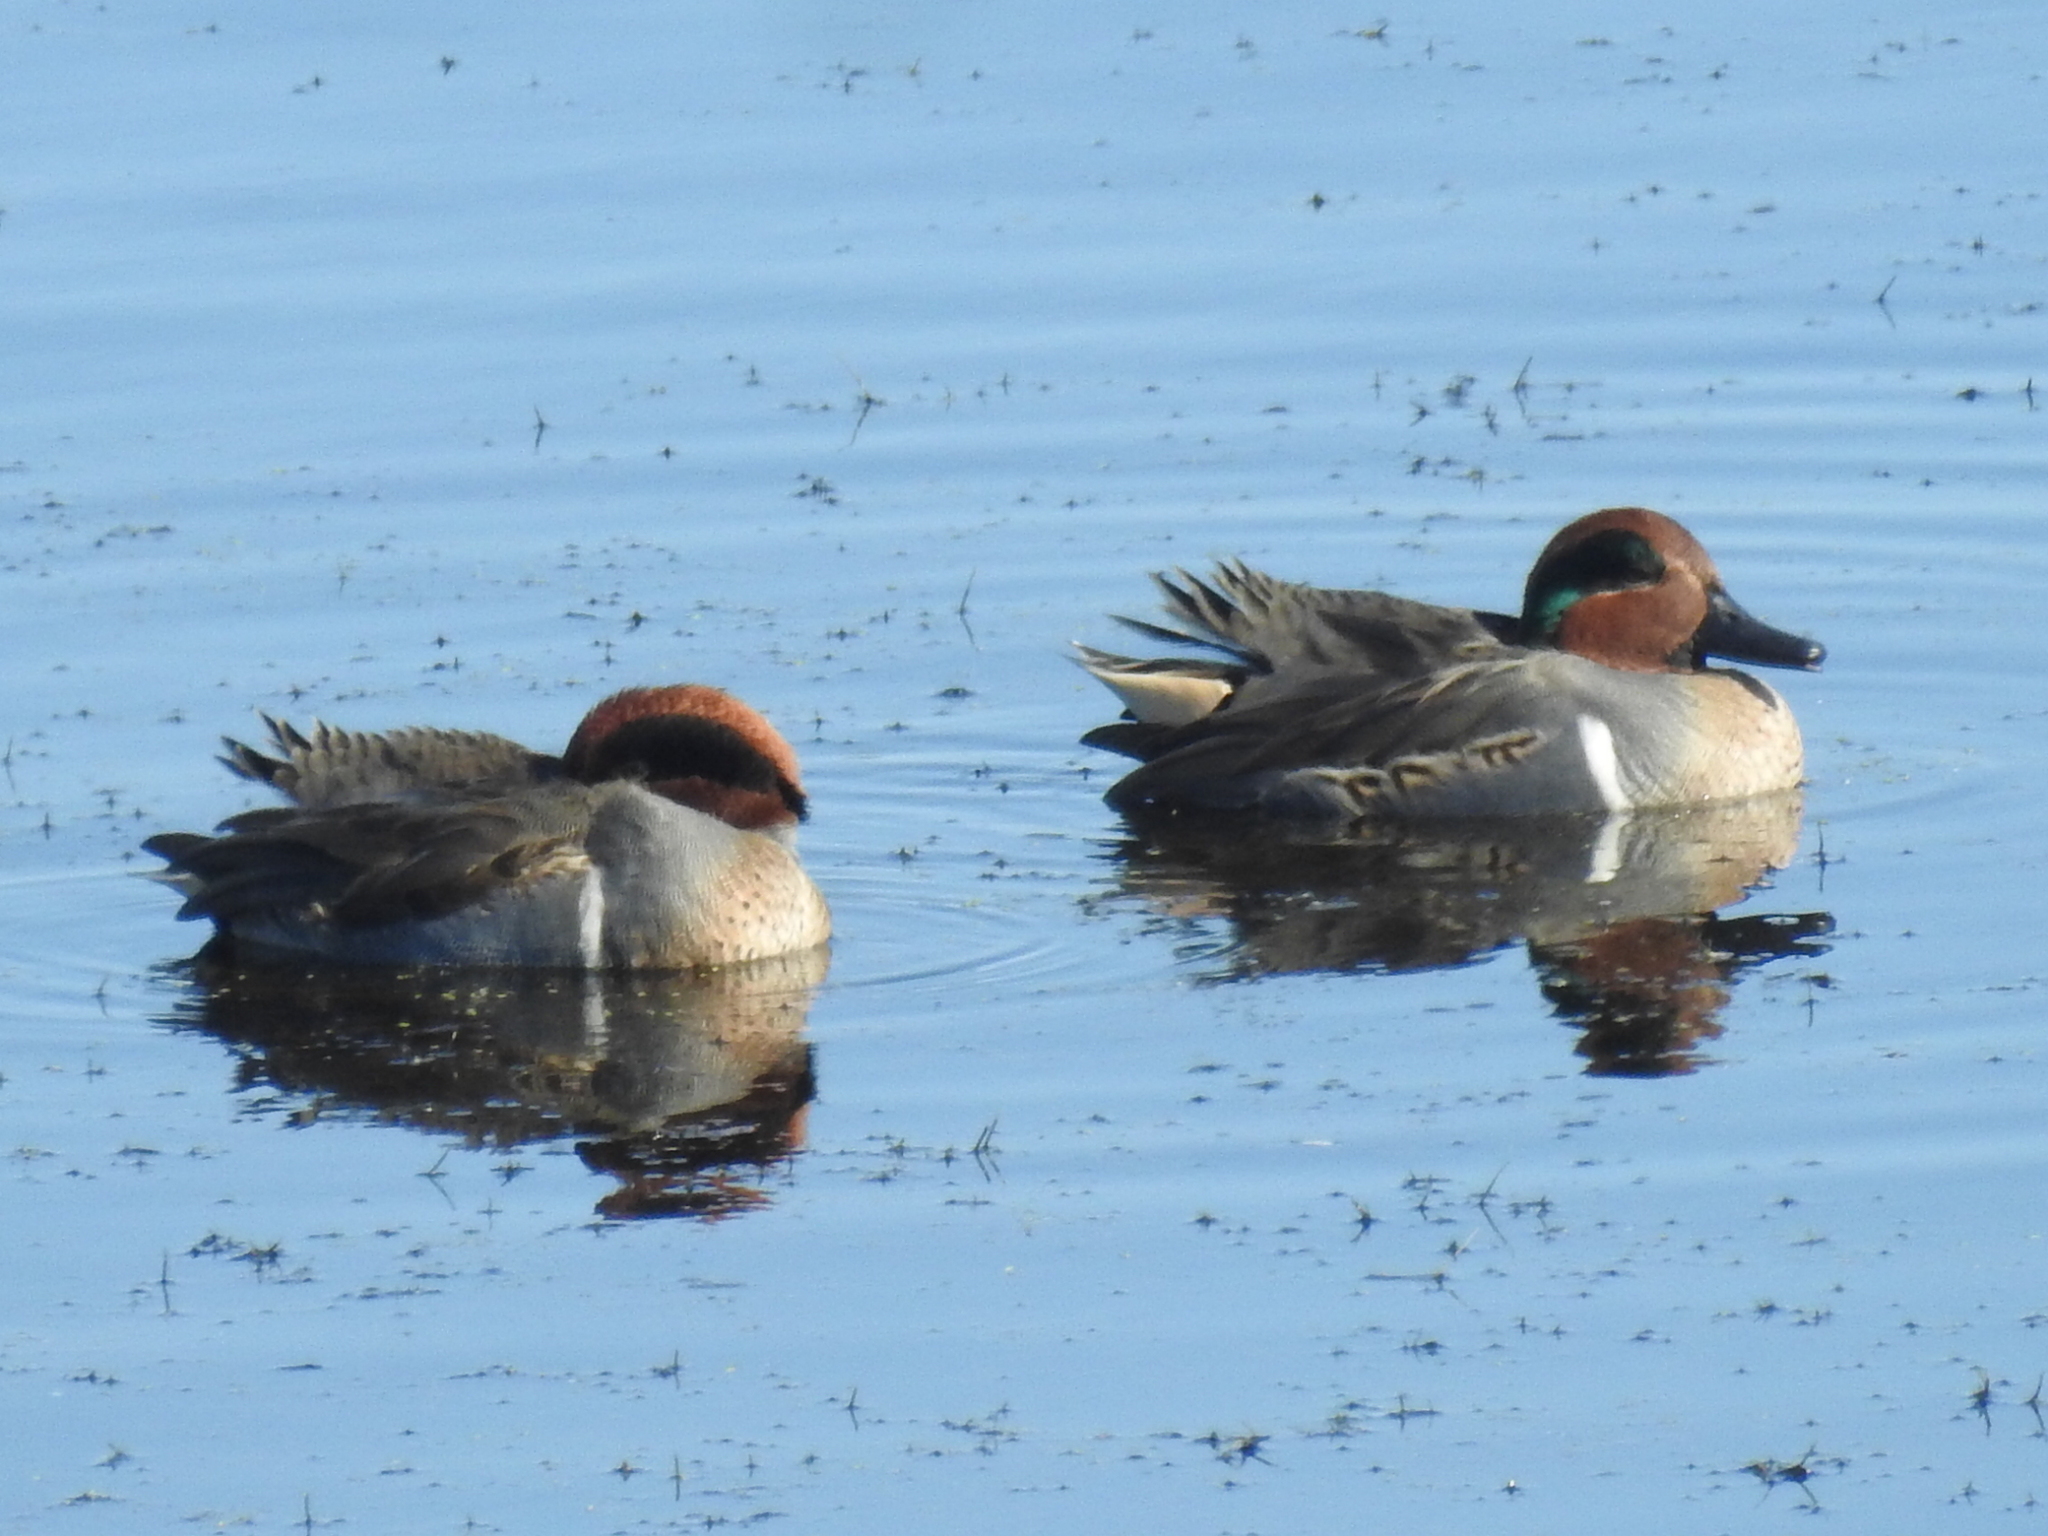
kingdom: Animalia
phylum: Chordata
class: Aves
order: Anseriformes
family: Anatidae
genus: Anas
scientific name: Anas crecca
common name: Eurasian teal
